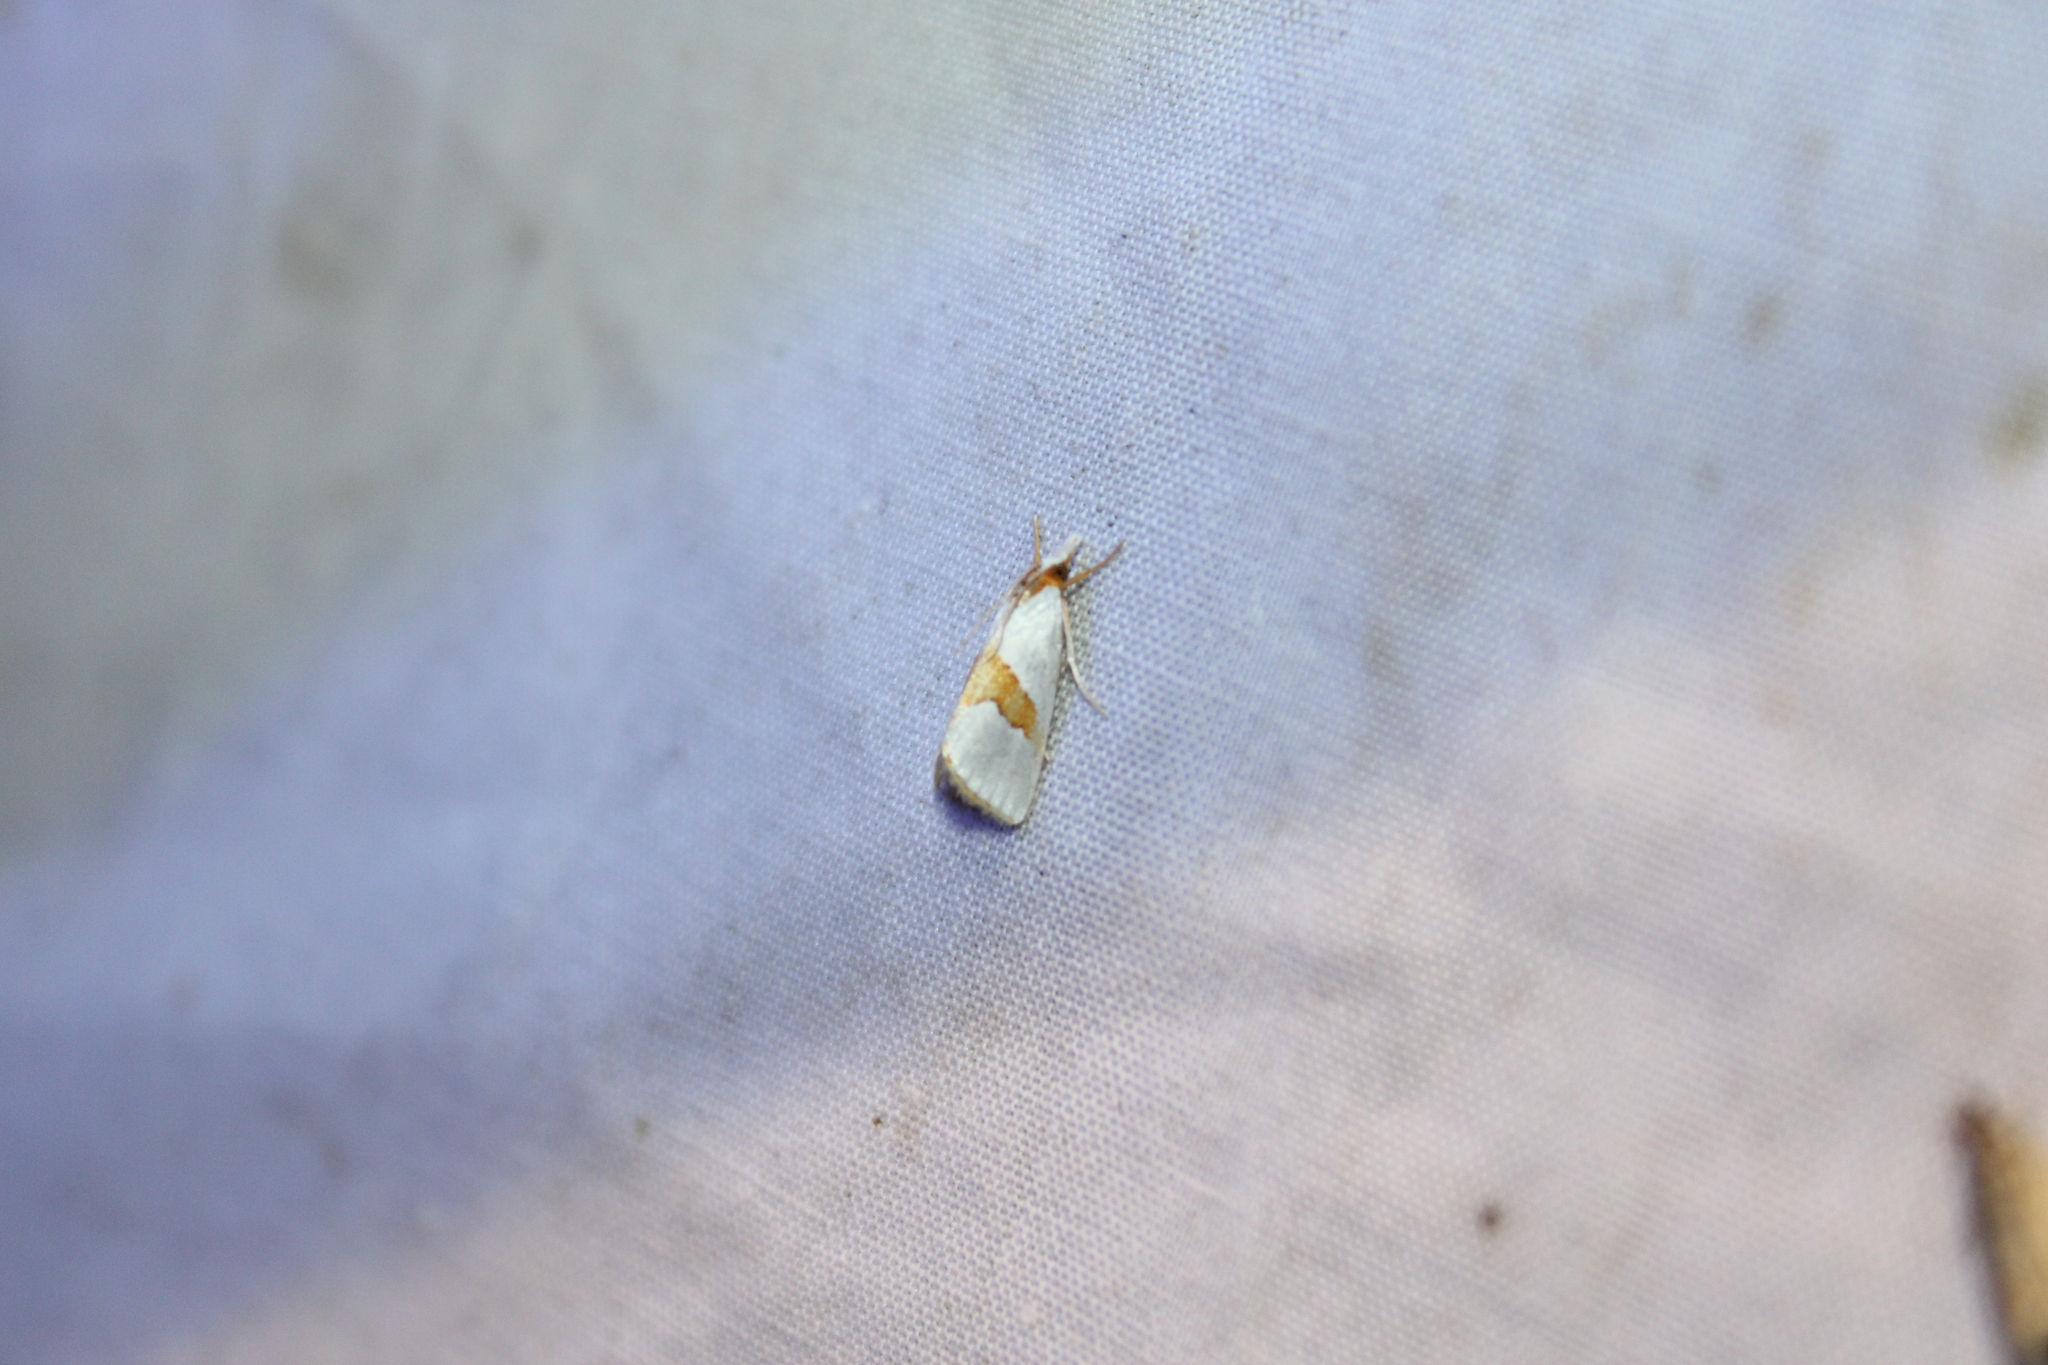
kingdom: Animalia
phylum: Arthropoda
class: Insecta
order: Lepidoptera
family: Crambidae
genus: Argyria
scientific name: Argyria auratella
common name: Curve-lined argyria moth
